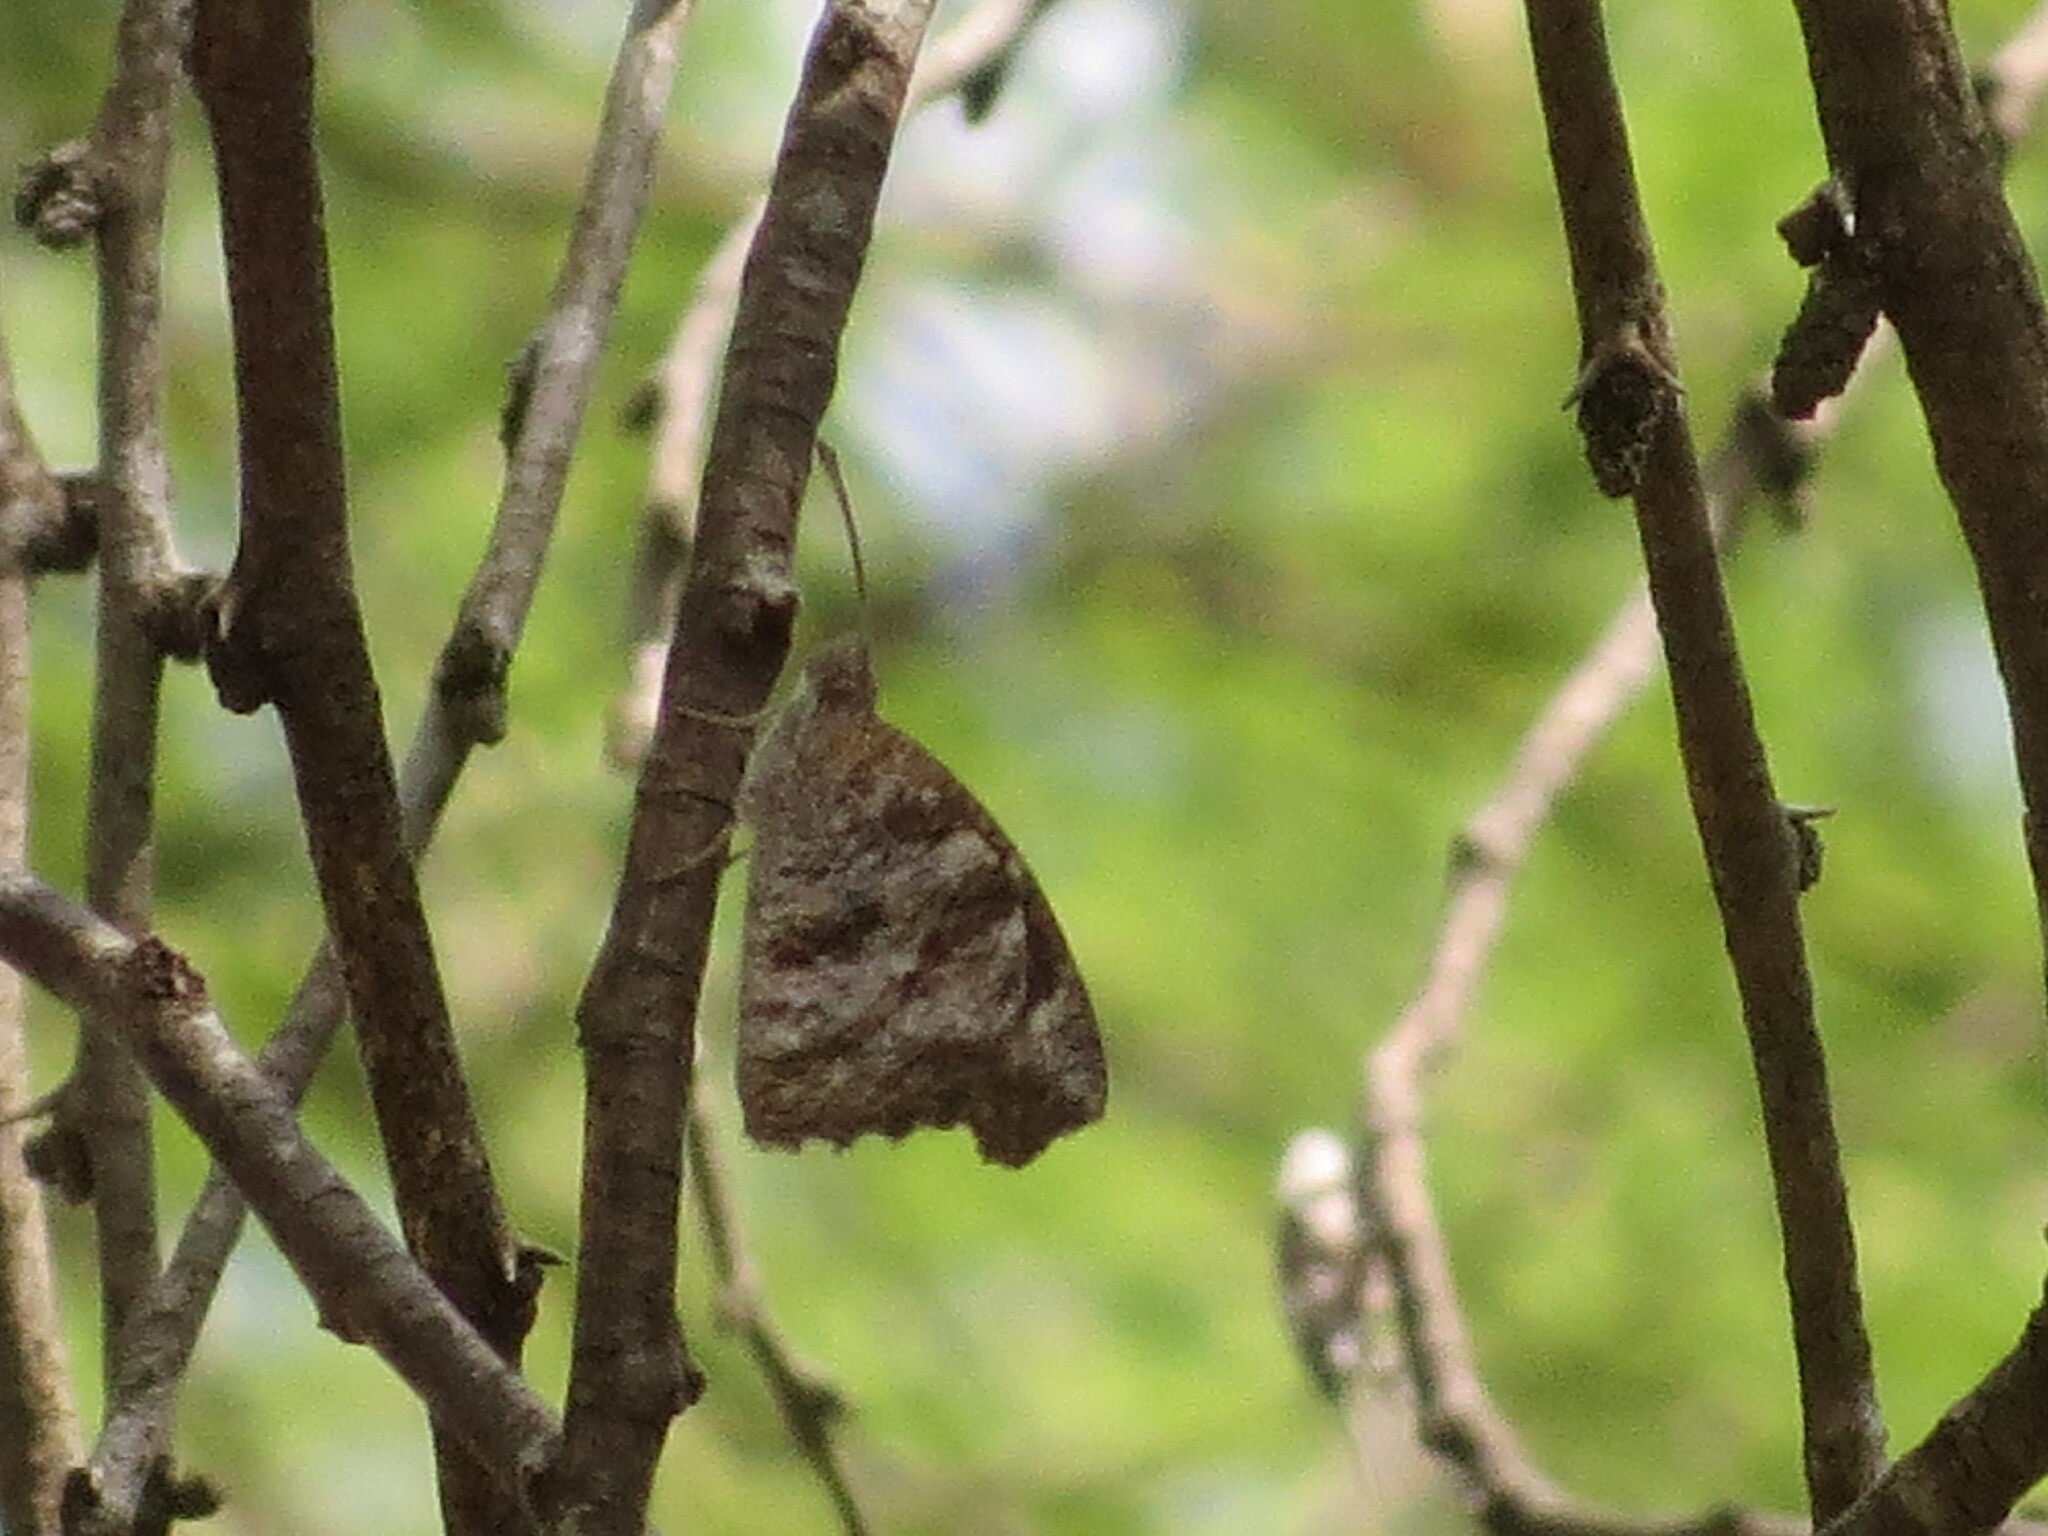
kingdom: Animalia
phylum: Arthropoda
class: Insecta
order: Lepidoptera
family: Nymphalidae
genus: Libytheana
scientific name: Libytheana carinenta
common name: American snout
